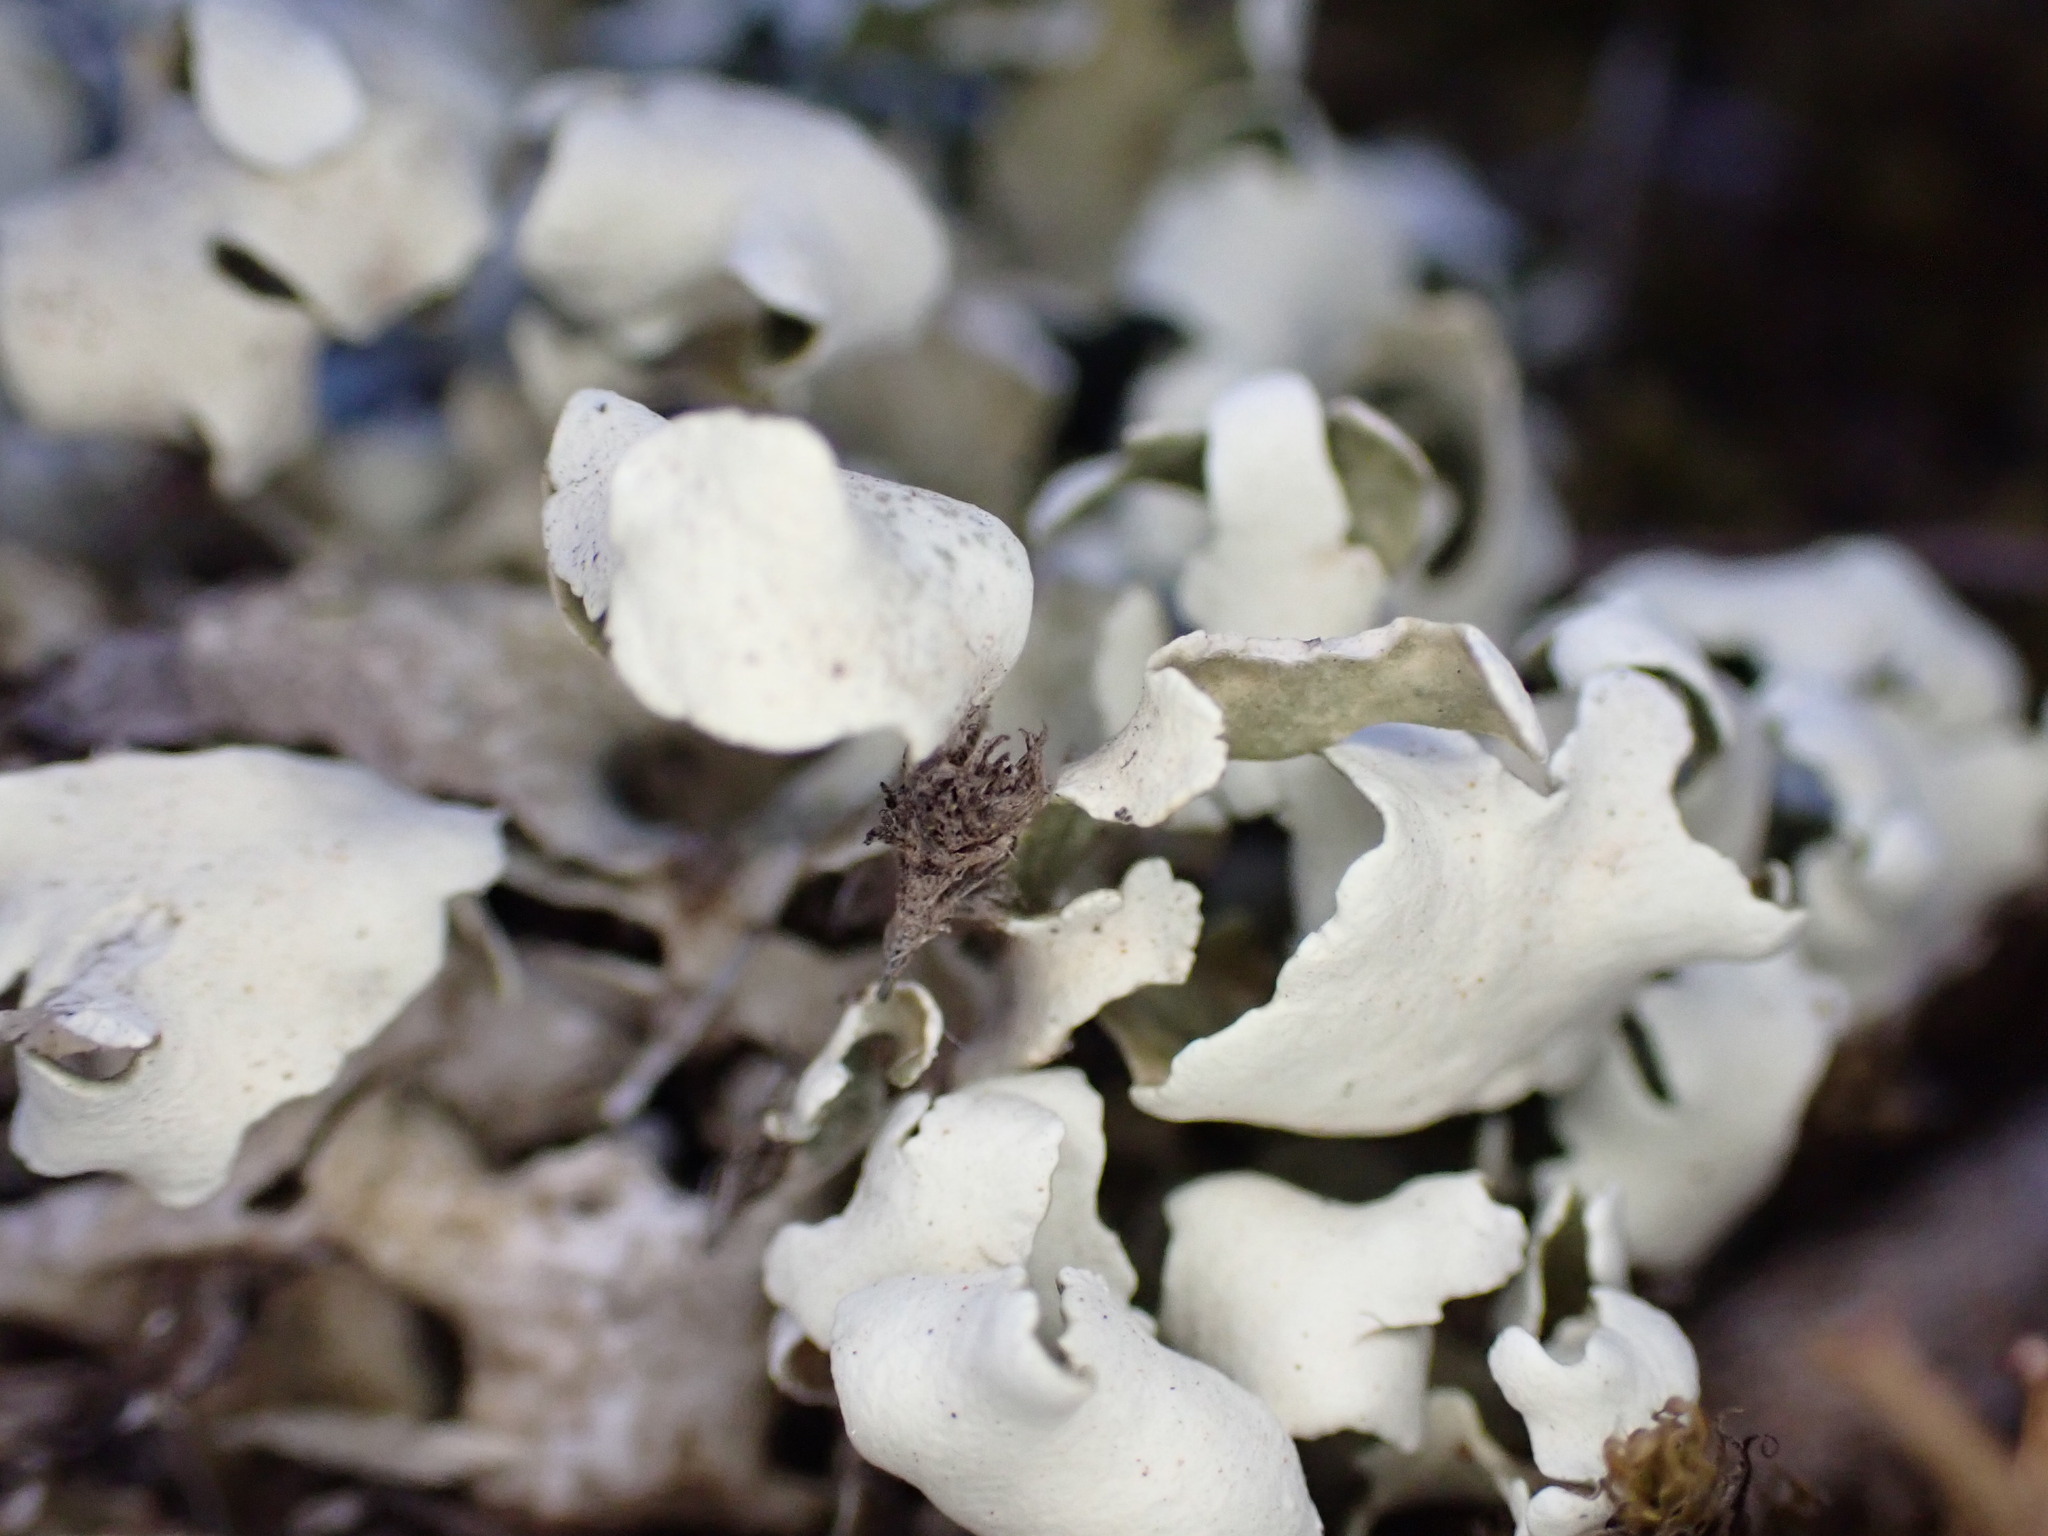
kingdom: Fungi
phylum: Ascomycota
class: Lecanoromycetes
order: Lecanorales
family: Cladoniaceae
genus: Cladonia
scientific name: Cladonia foliacea
